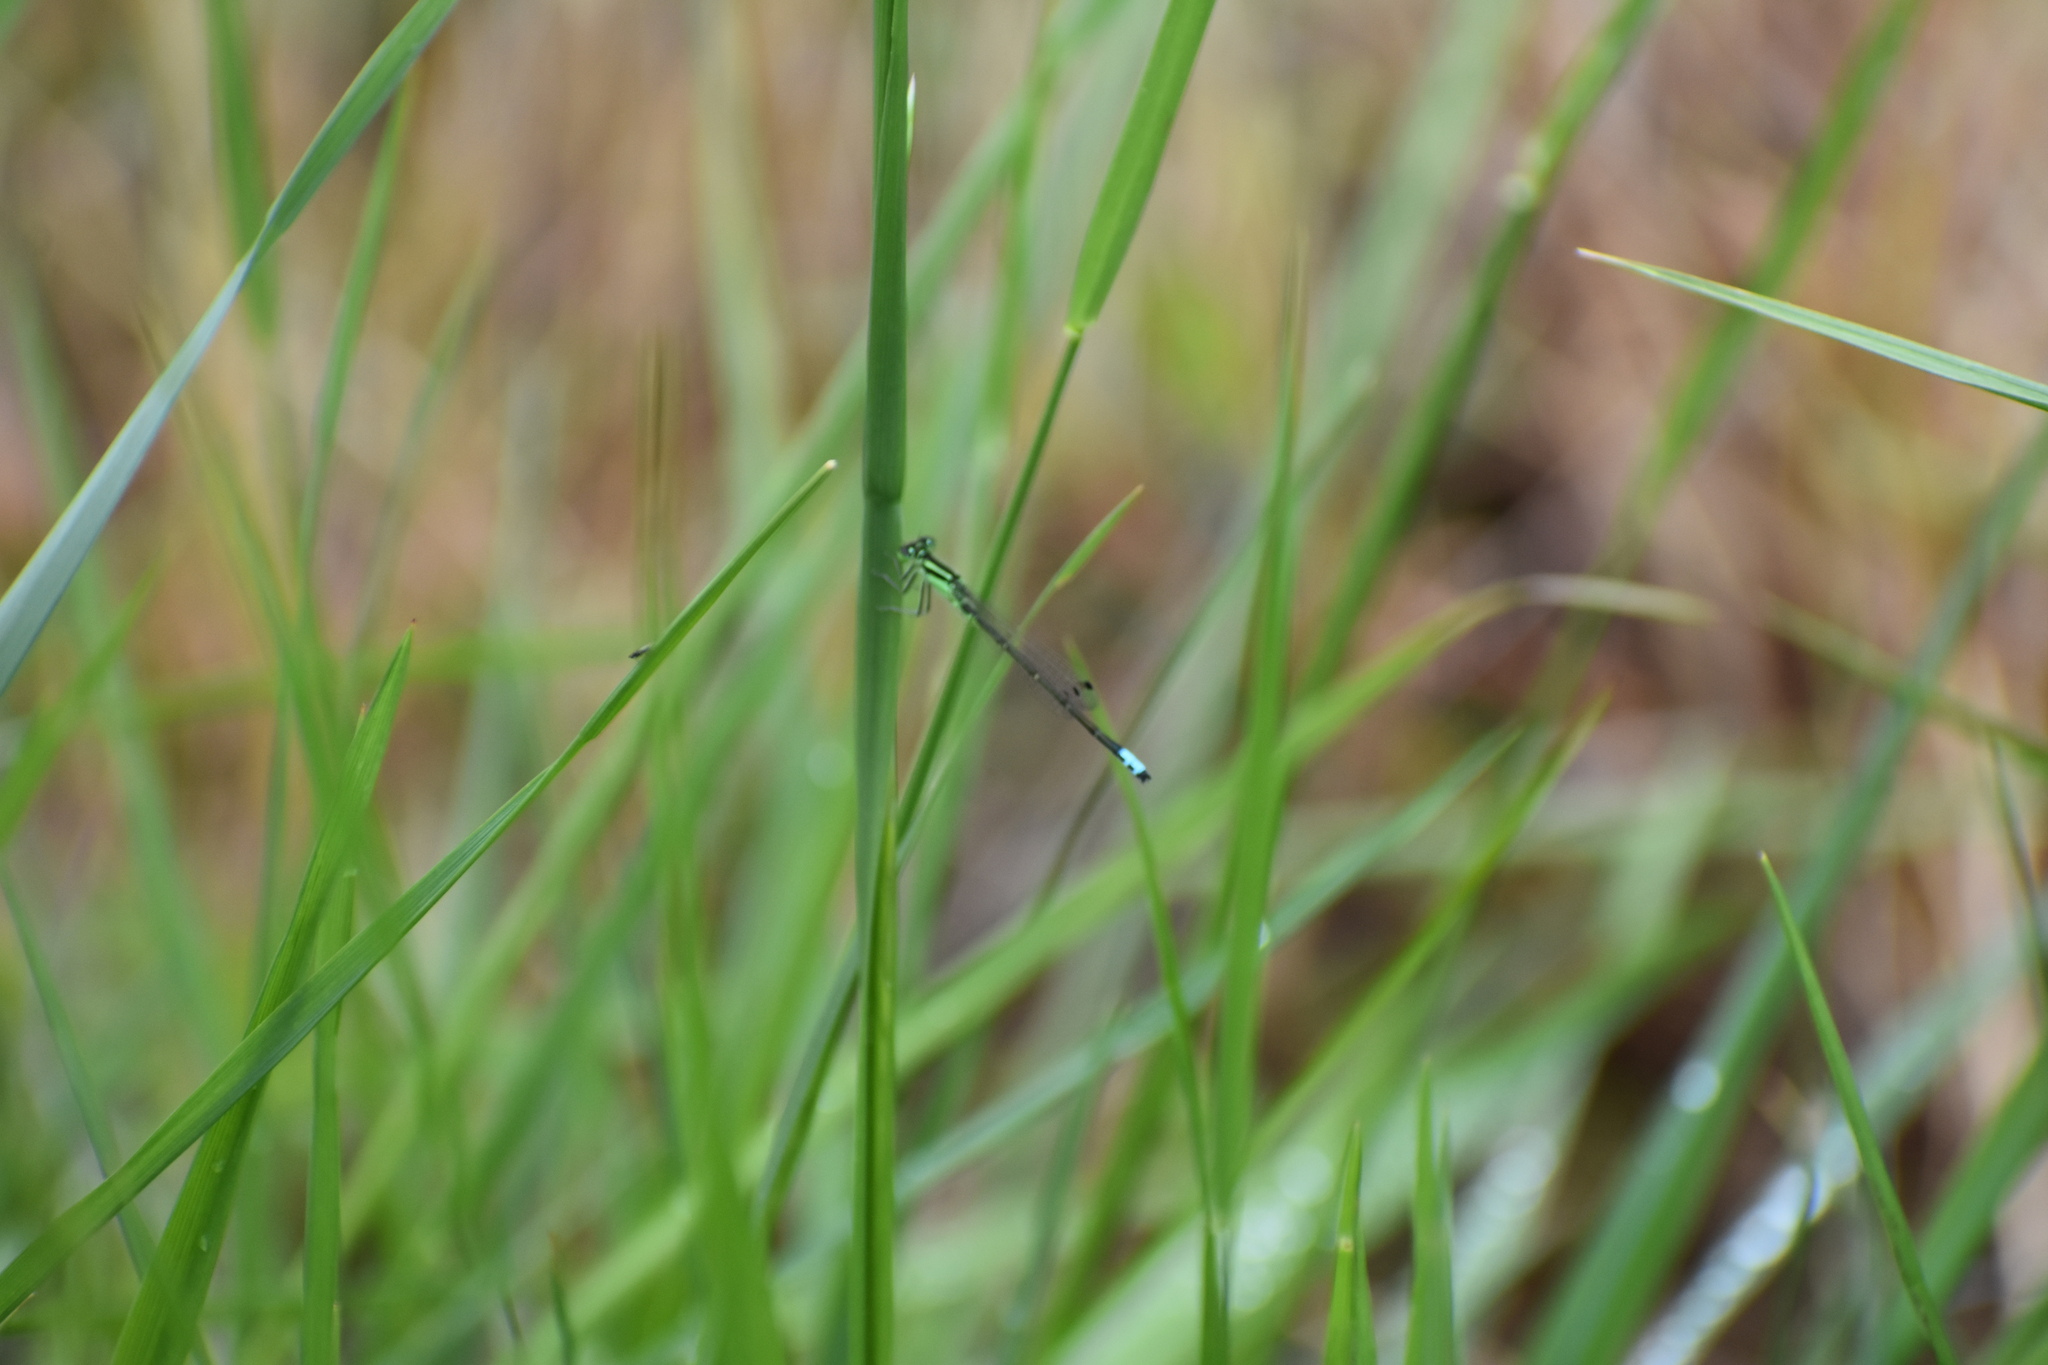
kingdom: Animalia
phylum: Arthropoda
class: Insecta
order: Odonata
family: Coenagrionidae
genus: Ischnura
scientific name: Ischnura verticalis
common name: Eastern forktail
